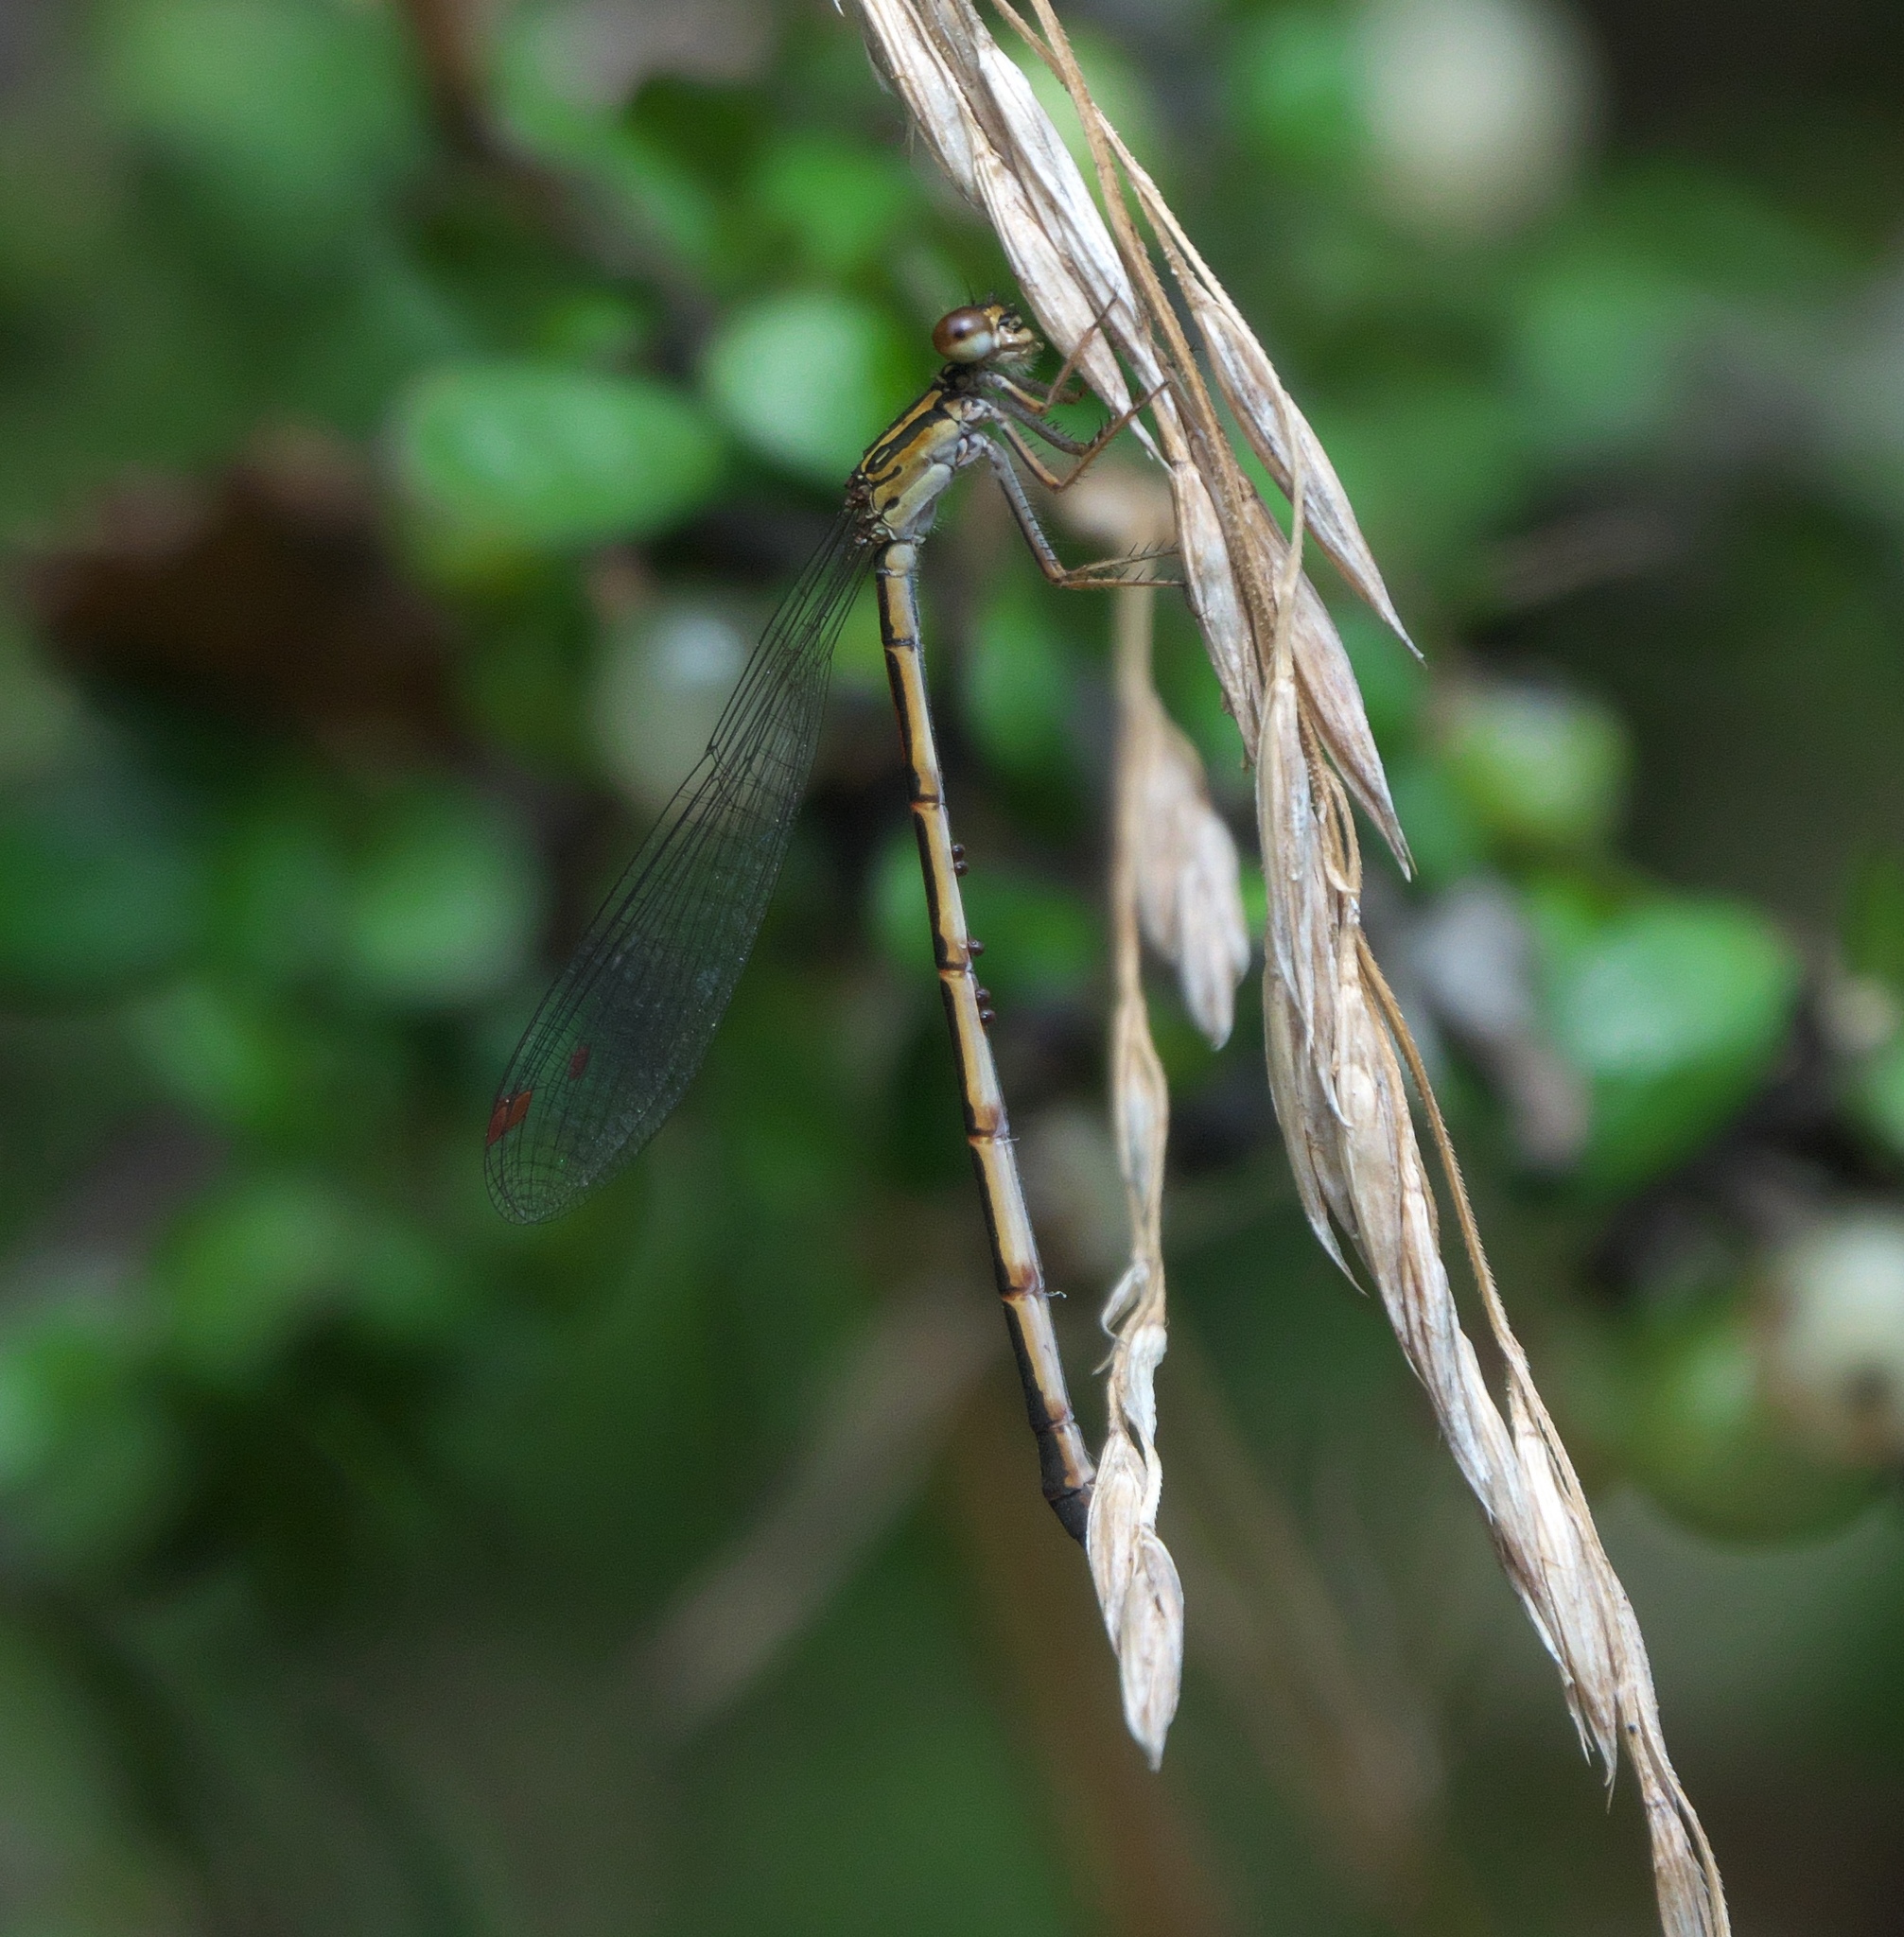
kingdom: Animalia
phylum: Arthropoda
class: Insecta
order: Odonata
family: Coenagrionidae
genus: Xanthocnemis
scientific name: Xanthocnemis zealandica
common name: Common redcoat damselfly
